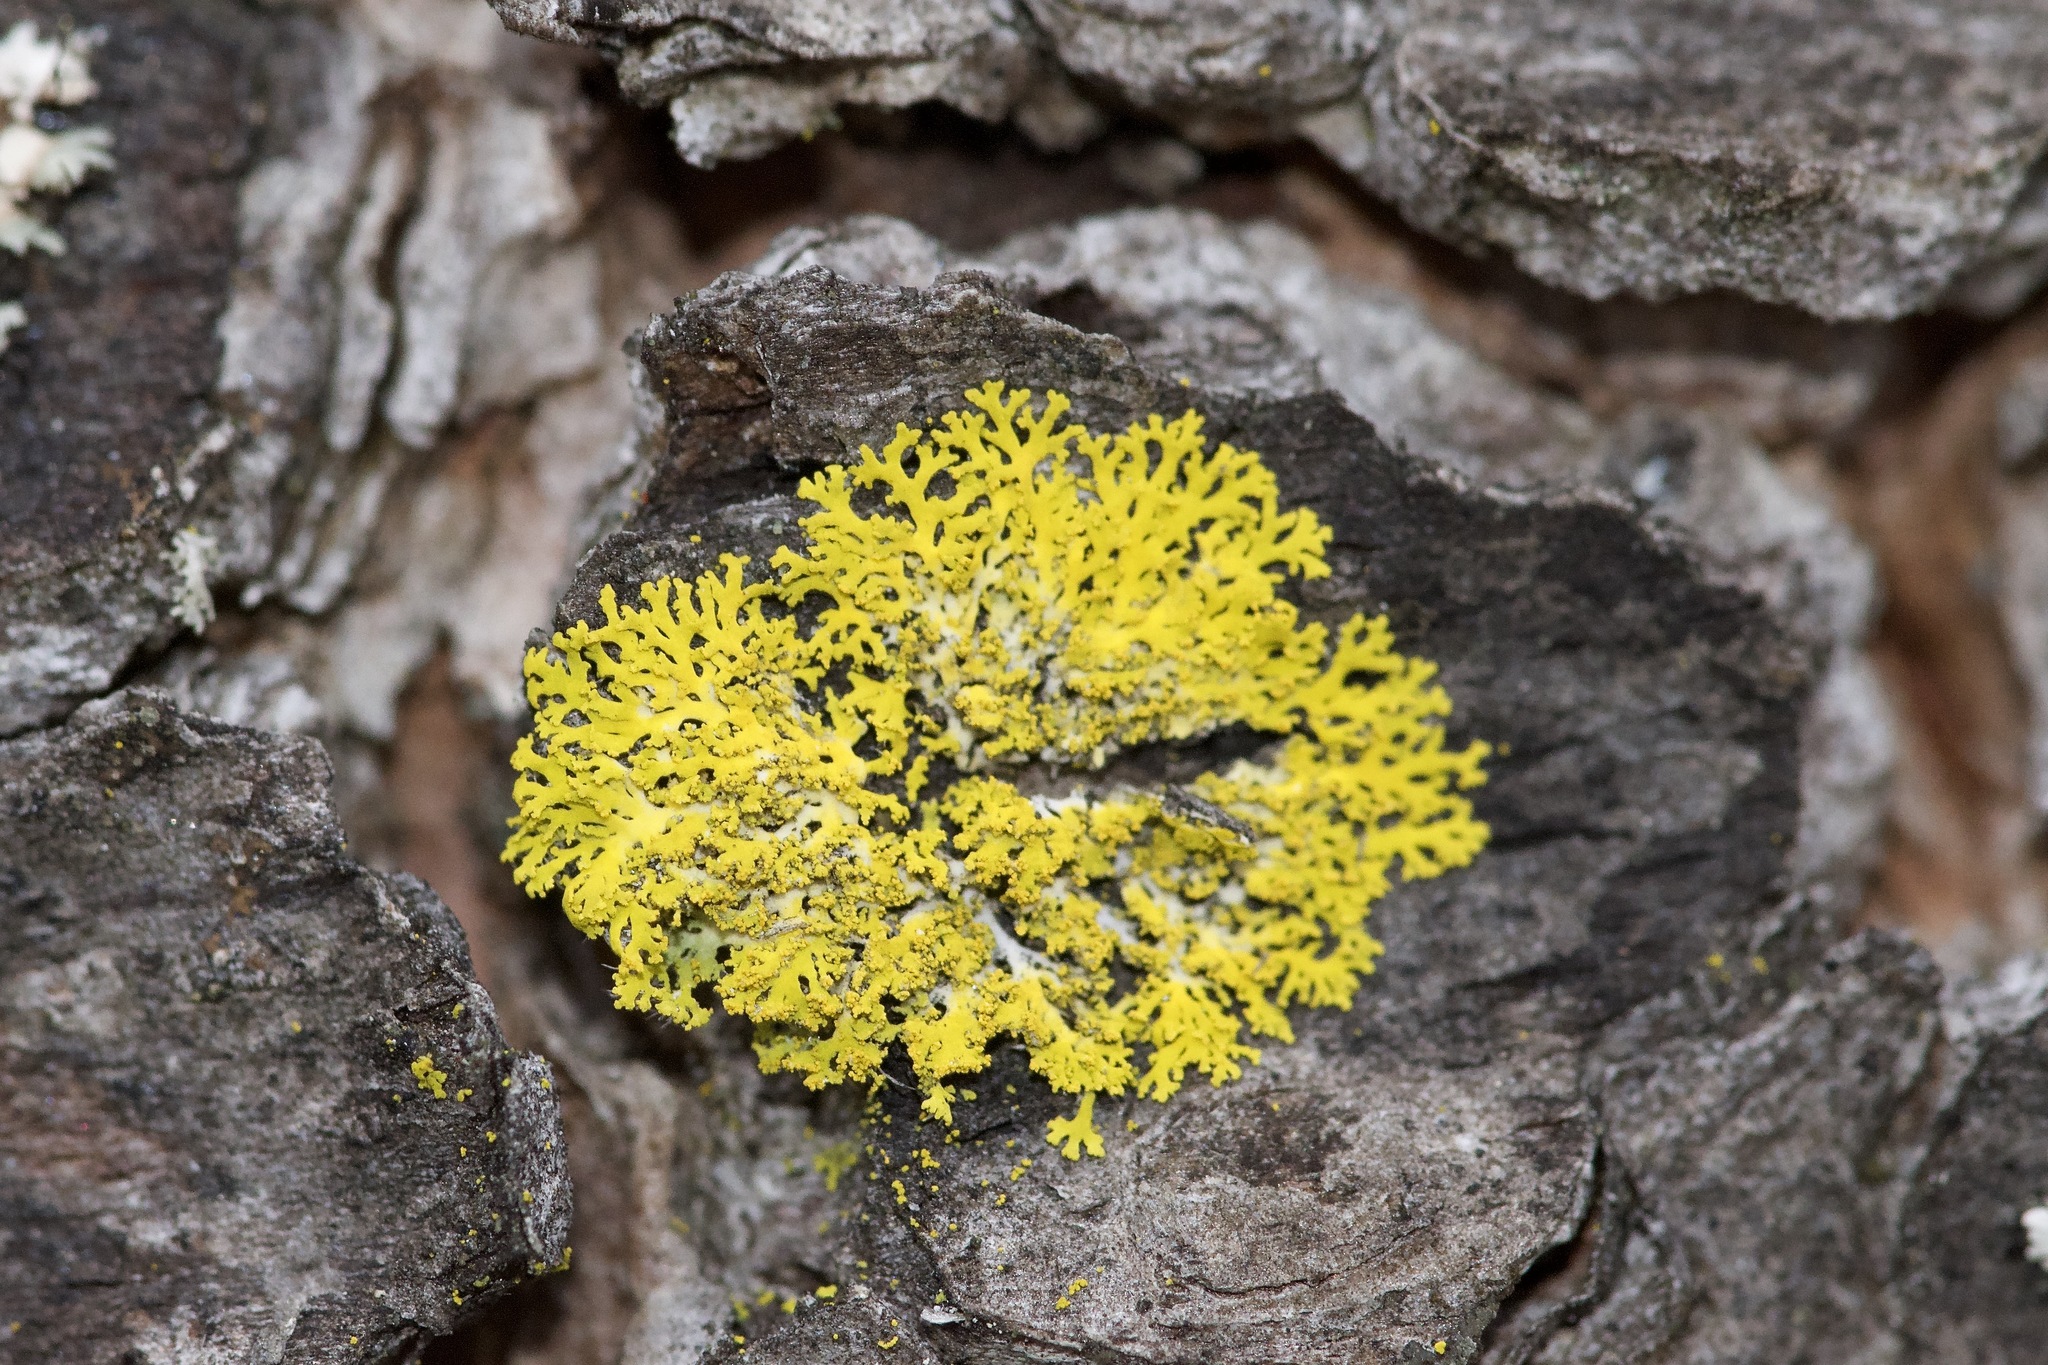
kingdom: Fungi
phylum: Ascomycota
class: Candelariomycetes
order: Candelariales
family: Candelariaceae
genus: Candelaria
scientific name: Candelaria concolor
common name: Candleflame lichen
